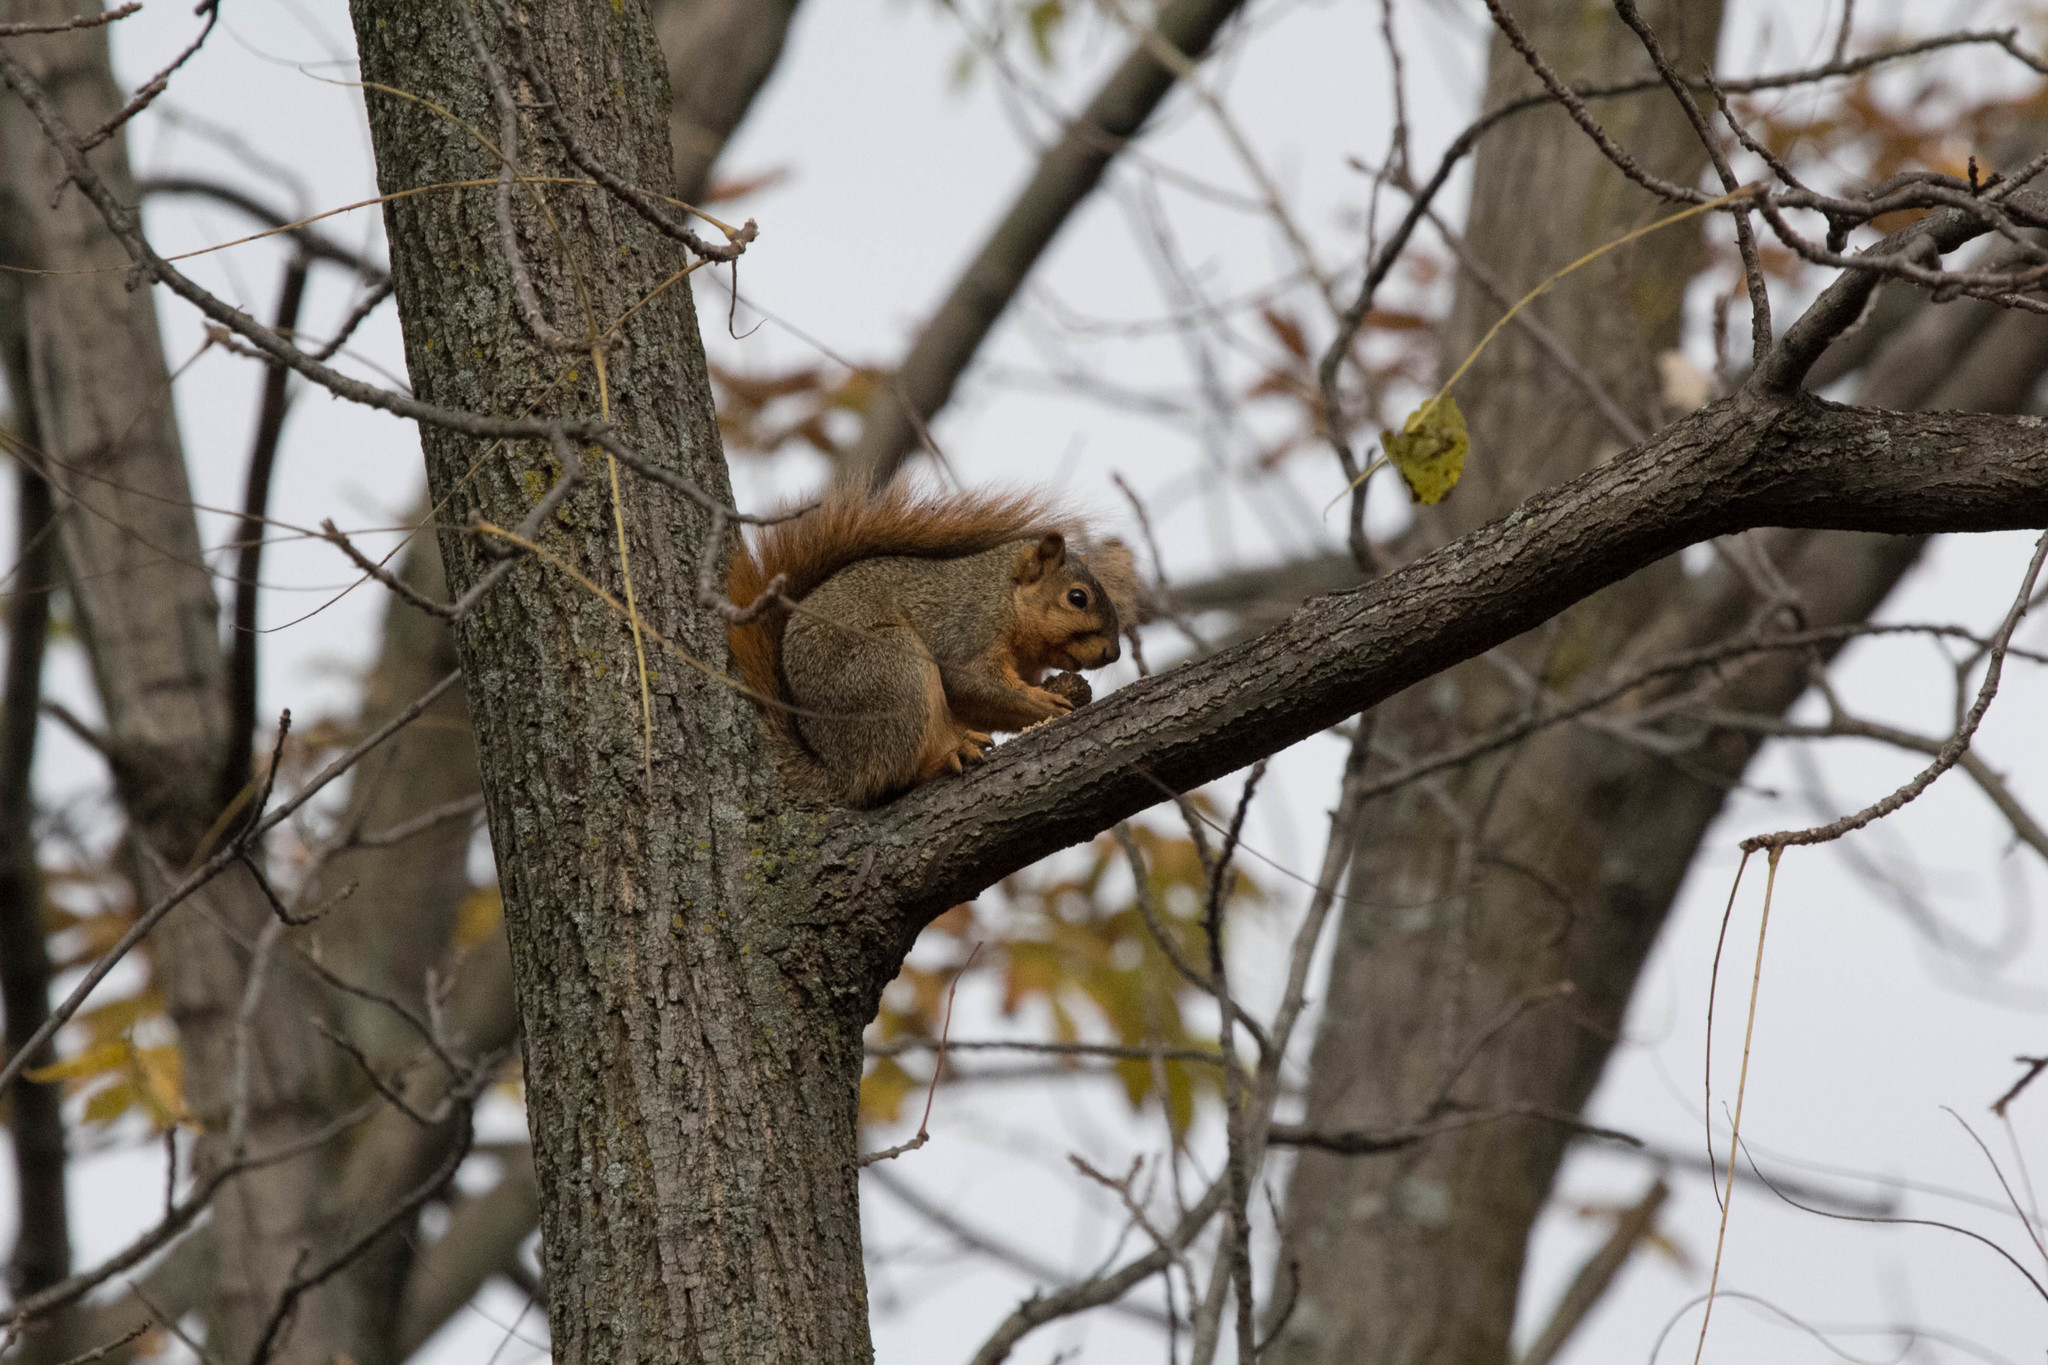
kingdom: Animalia
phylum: Chordata
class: Mammalia
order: Rodentia
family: Sciuridae
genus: Sciurus
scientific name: Sciurus niger
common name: Fox squirrel
